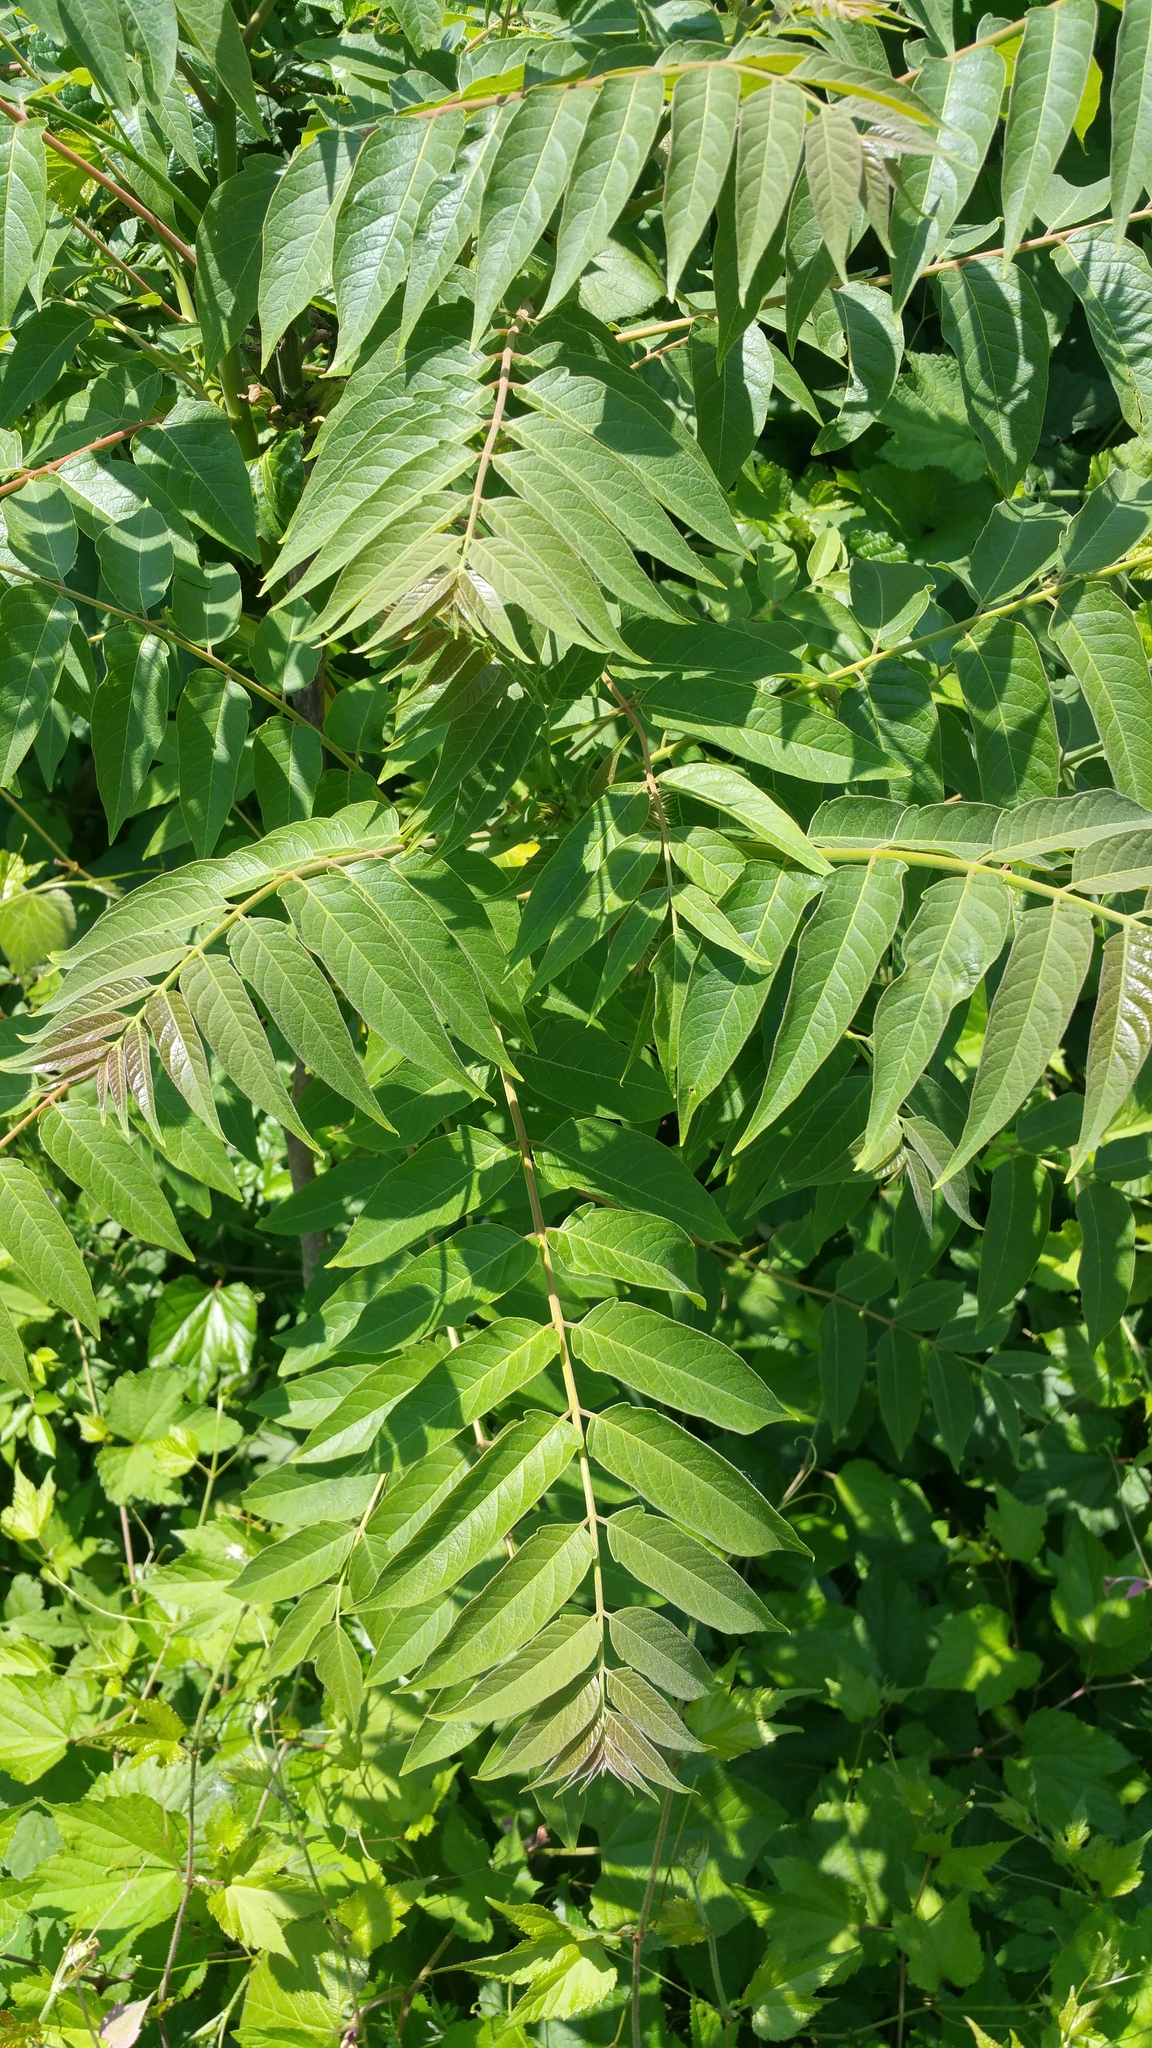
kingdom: Plantae
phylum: Tracheophyta
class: Magnoliopsida
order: Sapindales
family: Simaroubaceae
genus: Ailanthus
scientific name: Ailanthus altissima
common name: Tree-of-heaven
